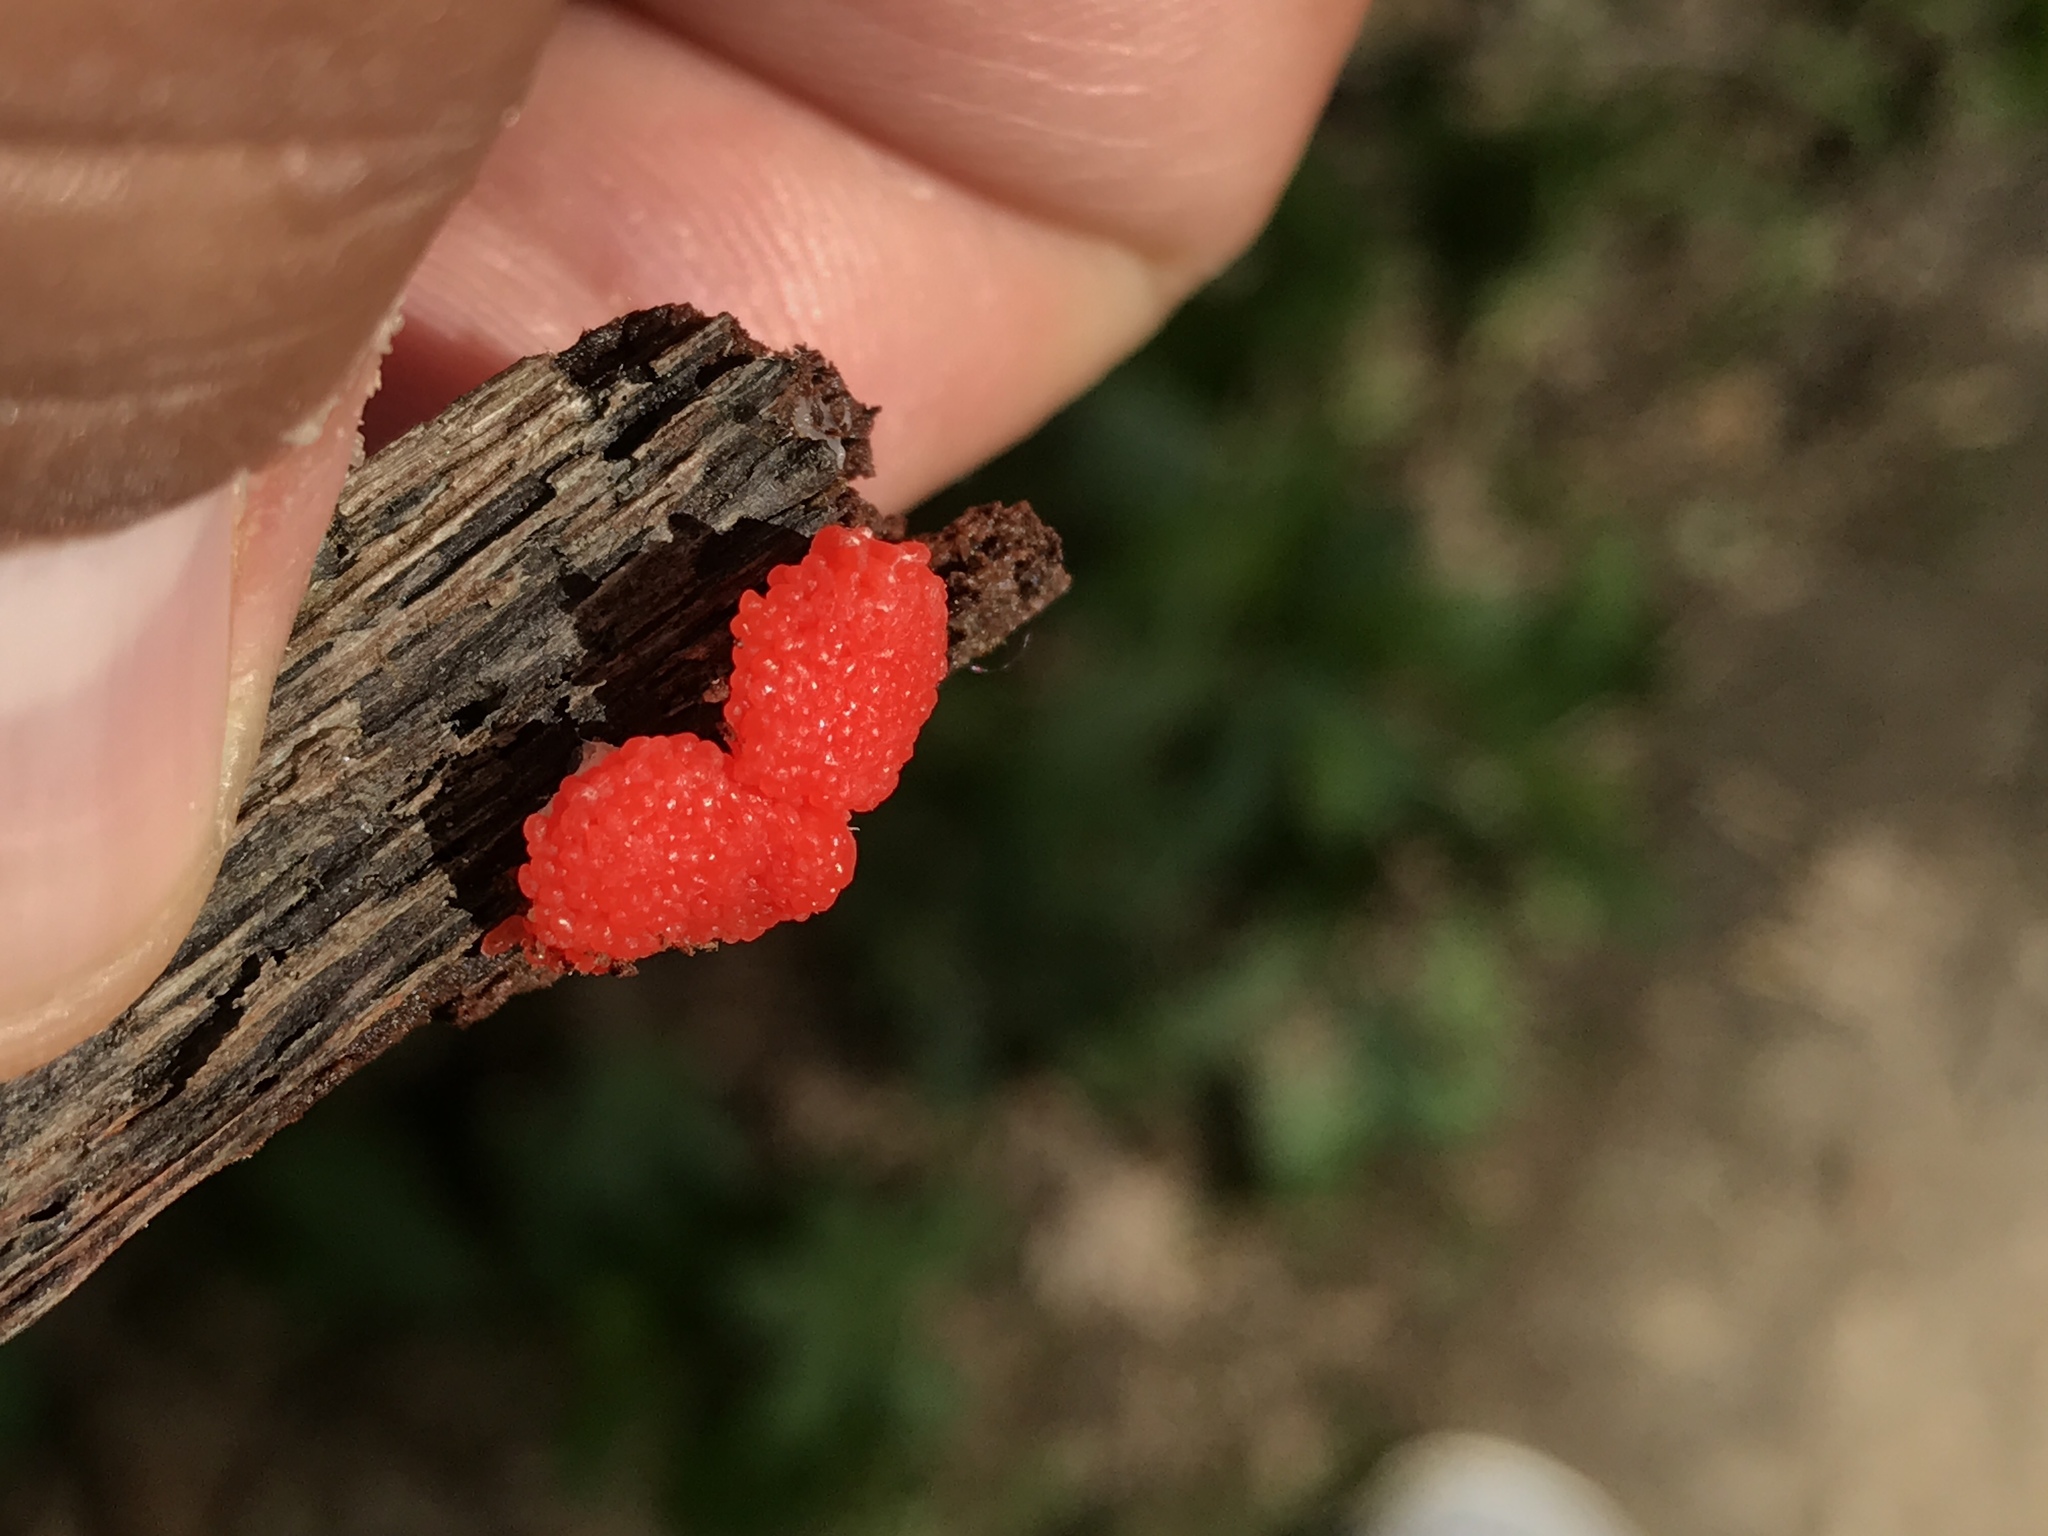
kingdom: Protozoa
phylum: Mycetozoa
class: Myxomycetes
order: Cribrariales
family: Tubiferaceae
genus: Tubifera
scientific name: Tubifera ferruginosa
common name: Red raspberry slime mold
